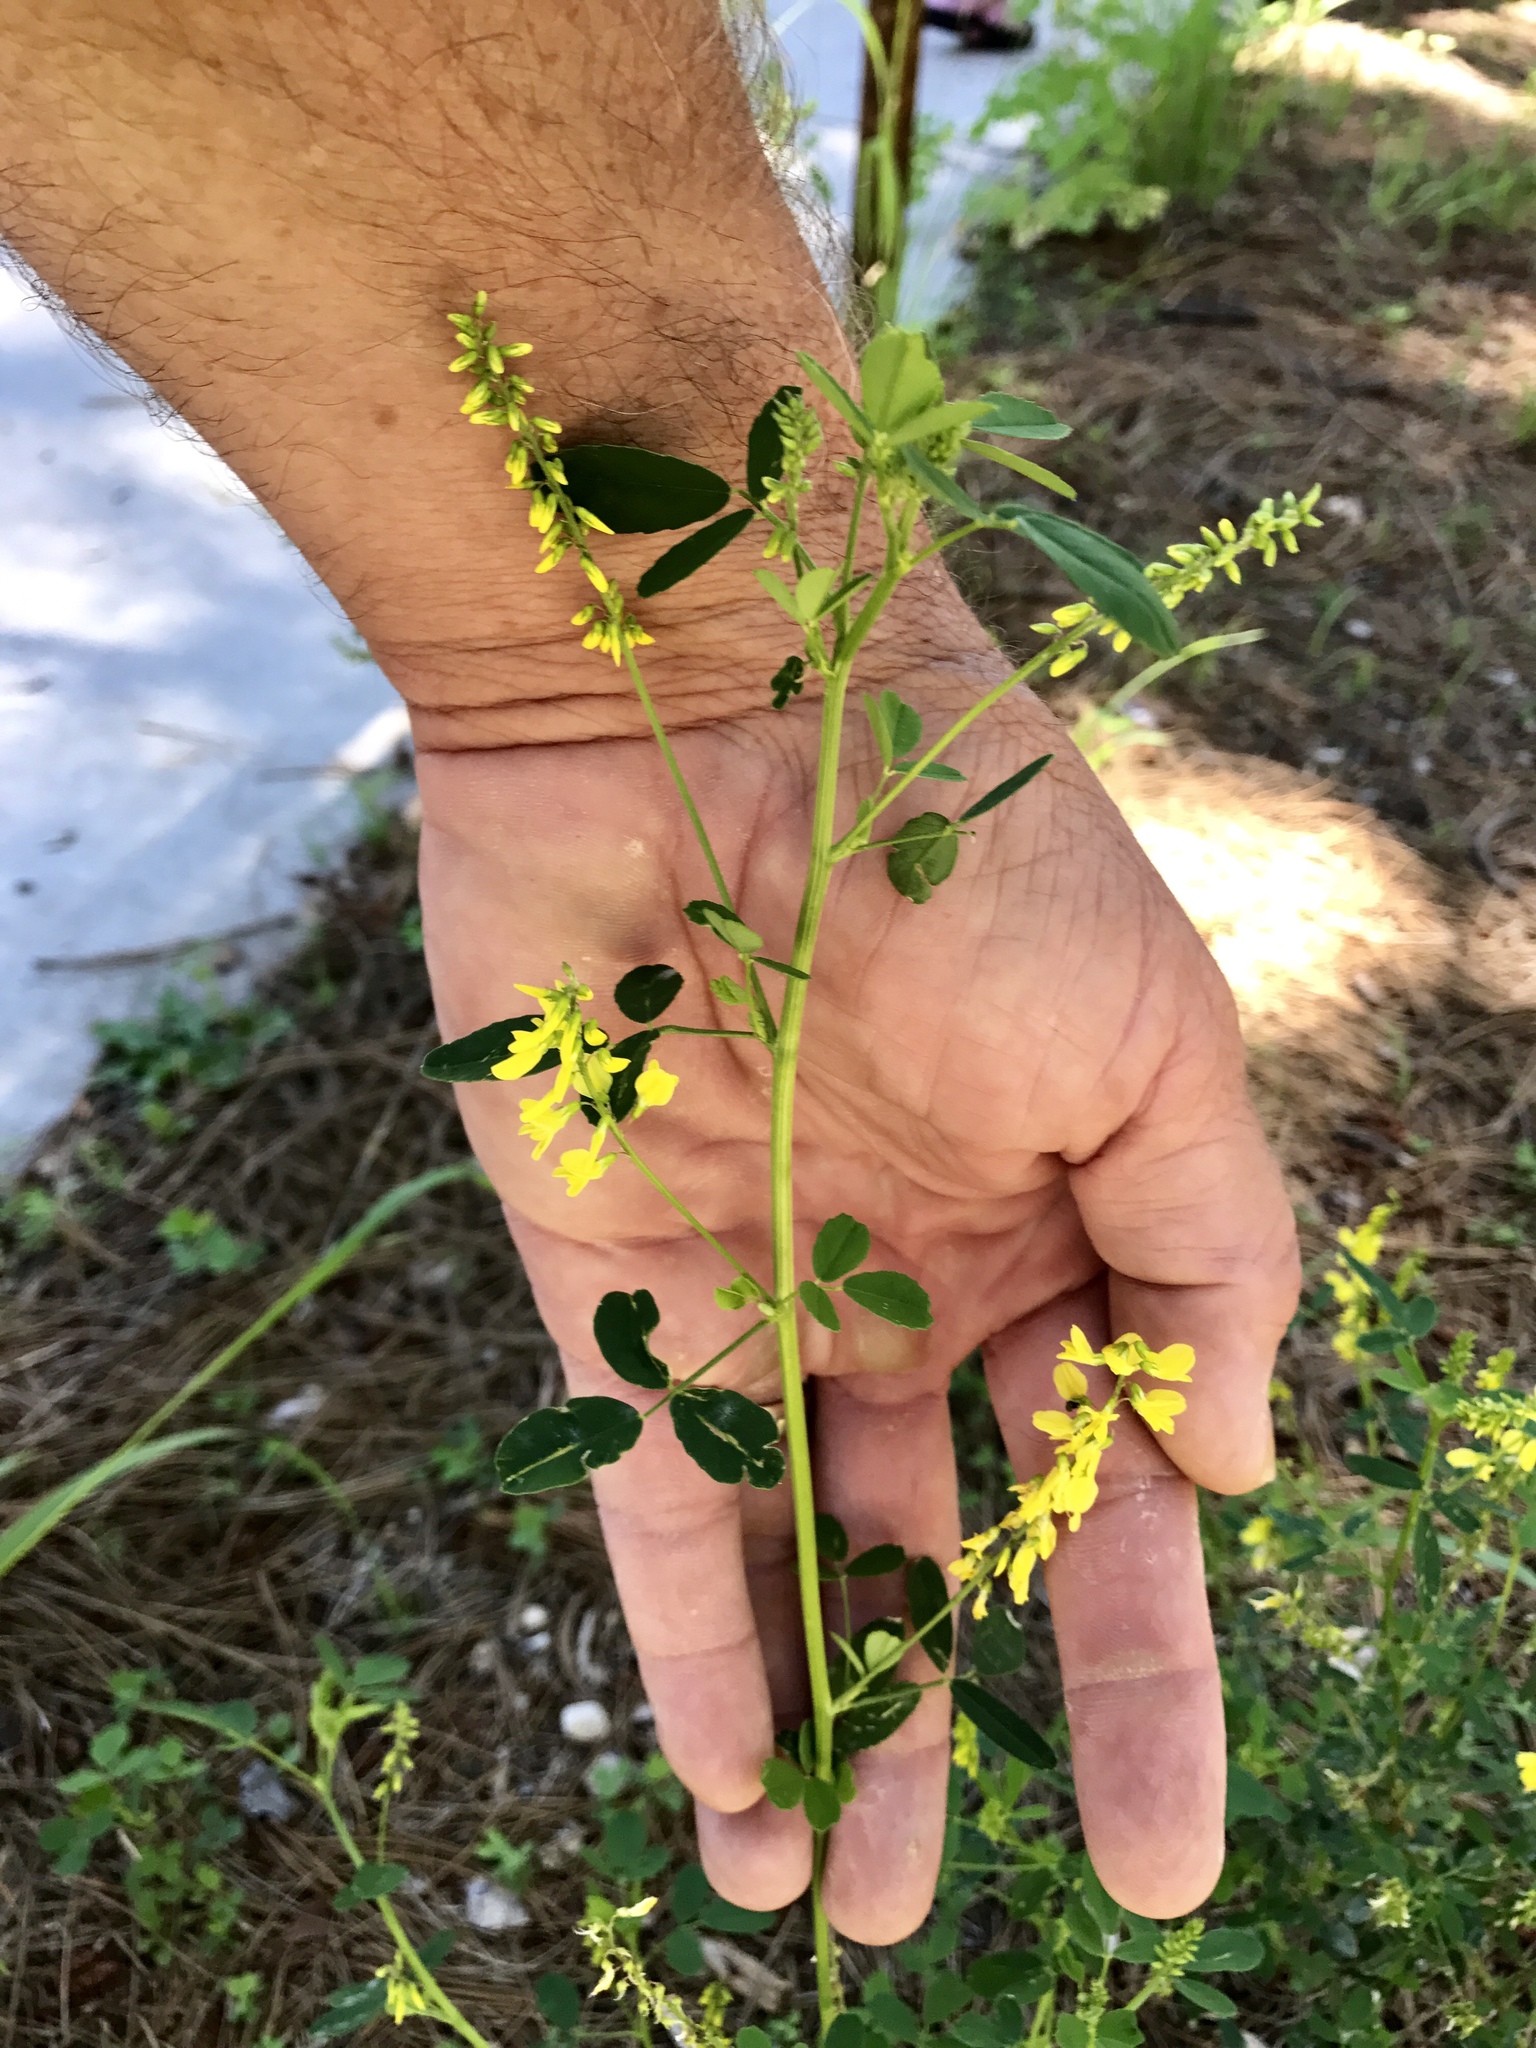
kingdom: Plantae
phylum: Tracheophyta
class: Magnoliopsida
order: Fabales
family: Fabaceae
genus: Melilotus
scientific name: Melilotus indicus
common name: Small melilot
